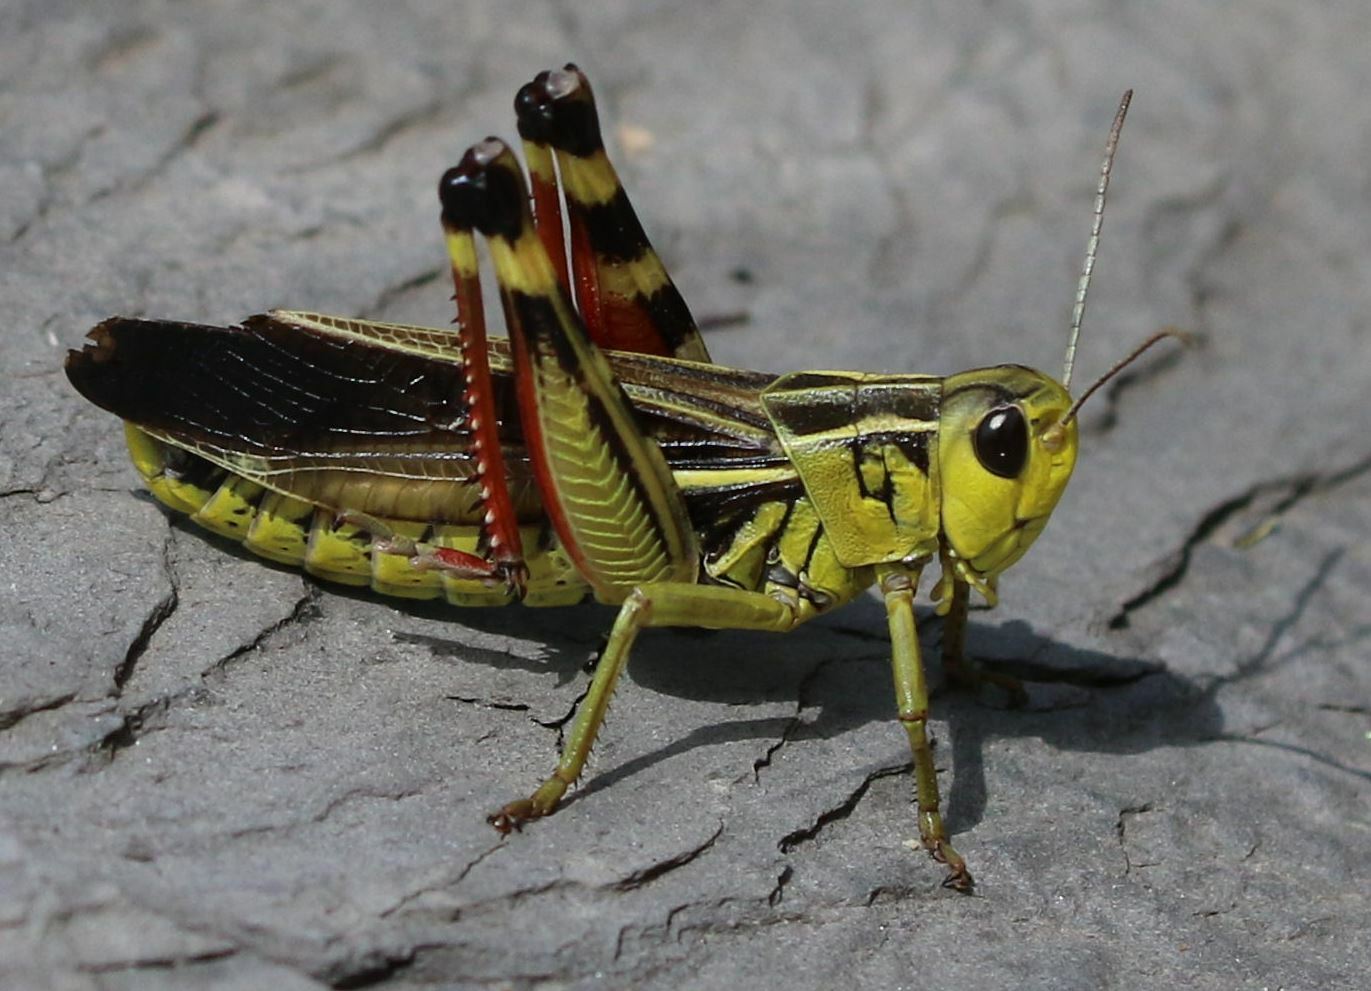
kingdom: Animalia
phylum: Arthropoda
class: Insecta
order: Orthoptera
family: Acrididae
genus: Arcyptera
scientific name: Arcyptera fusca
